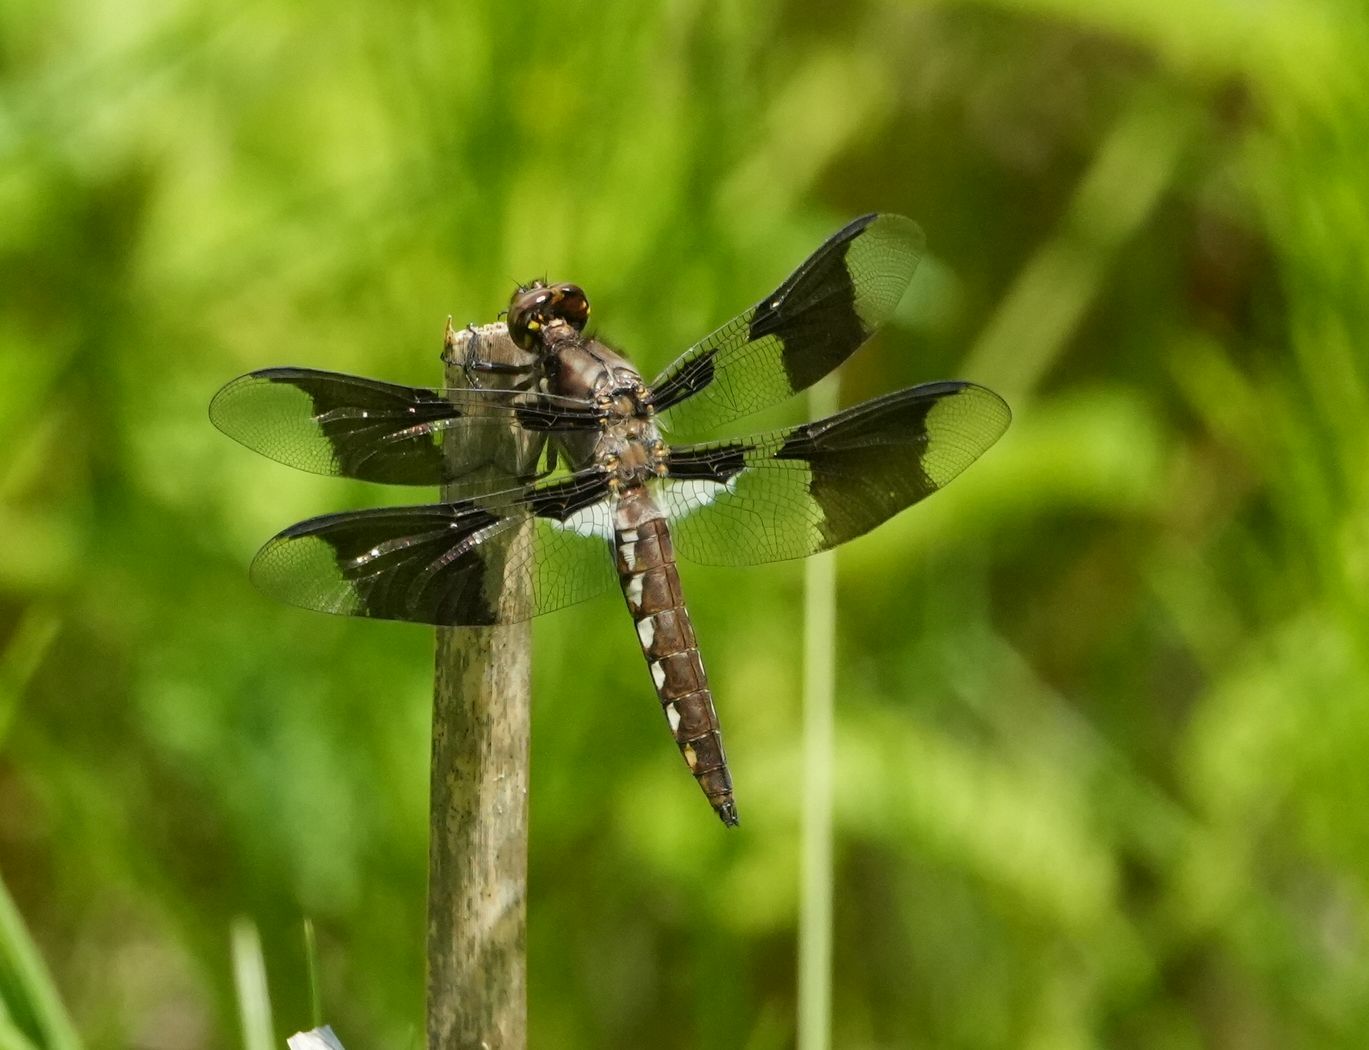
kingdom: Animalia
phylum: Arthropoda
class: Insecta
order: Odonata
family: Libellulidae
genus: Plathemis
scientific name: Plathemis lydia
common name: Common whitetail
